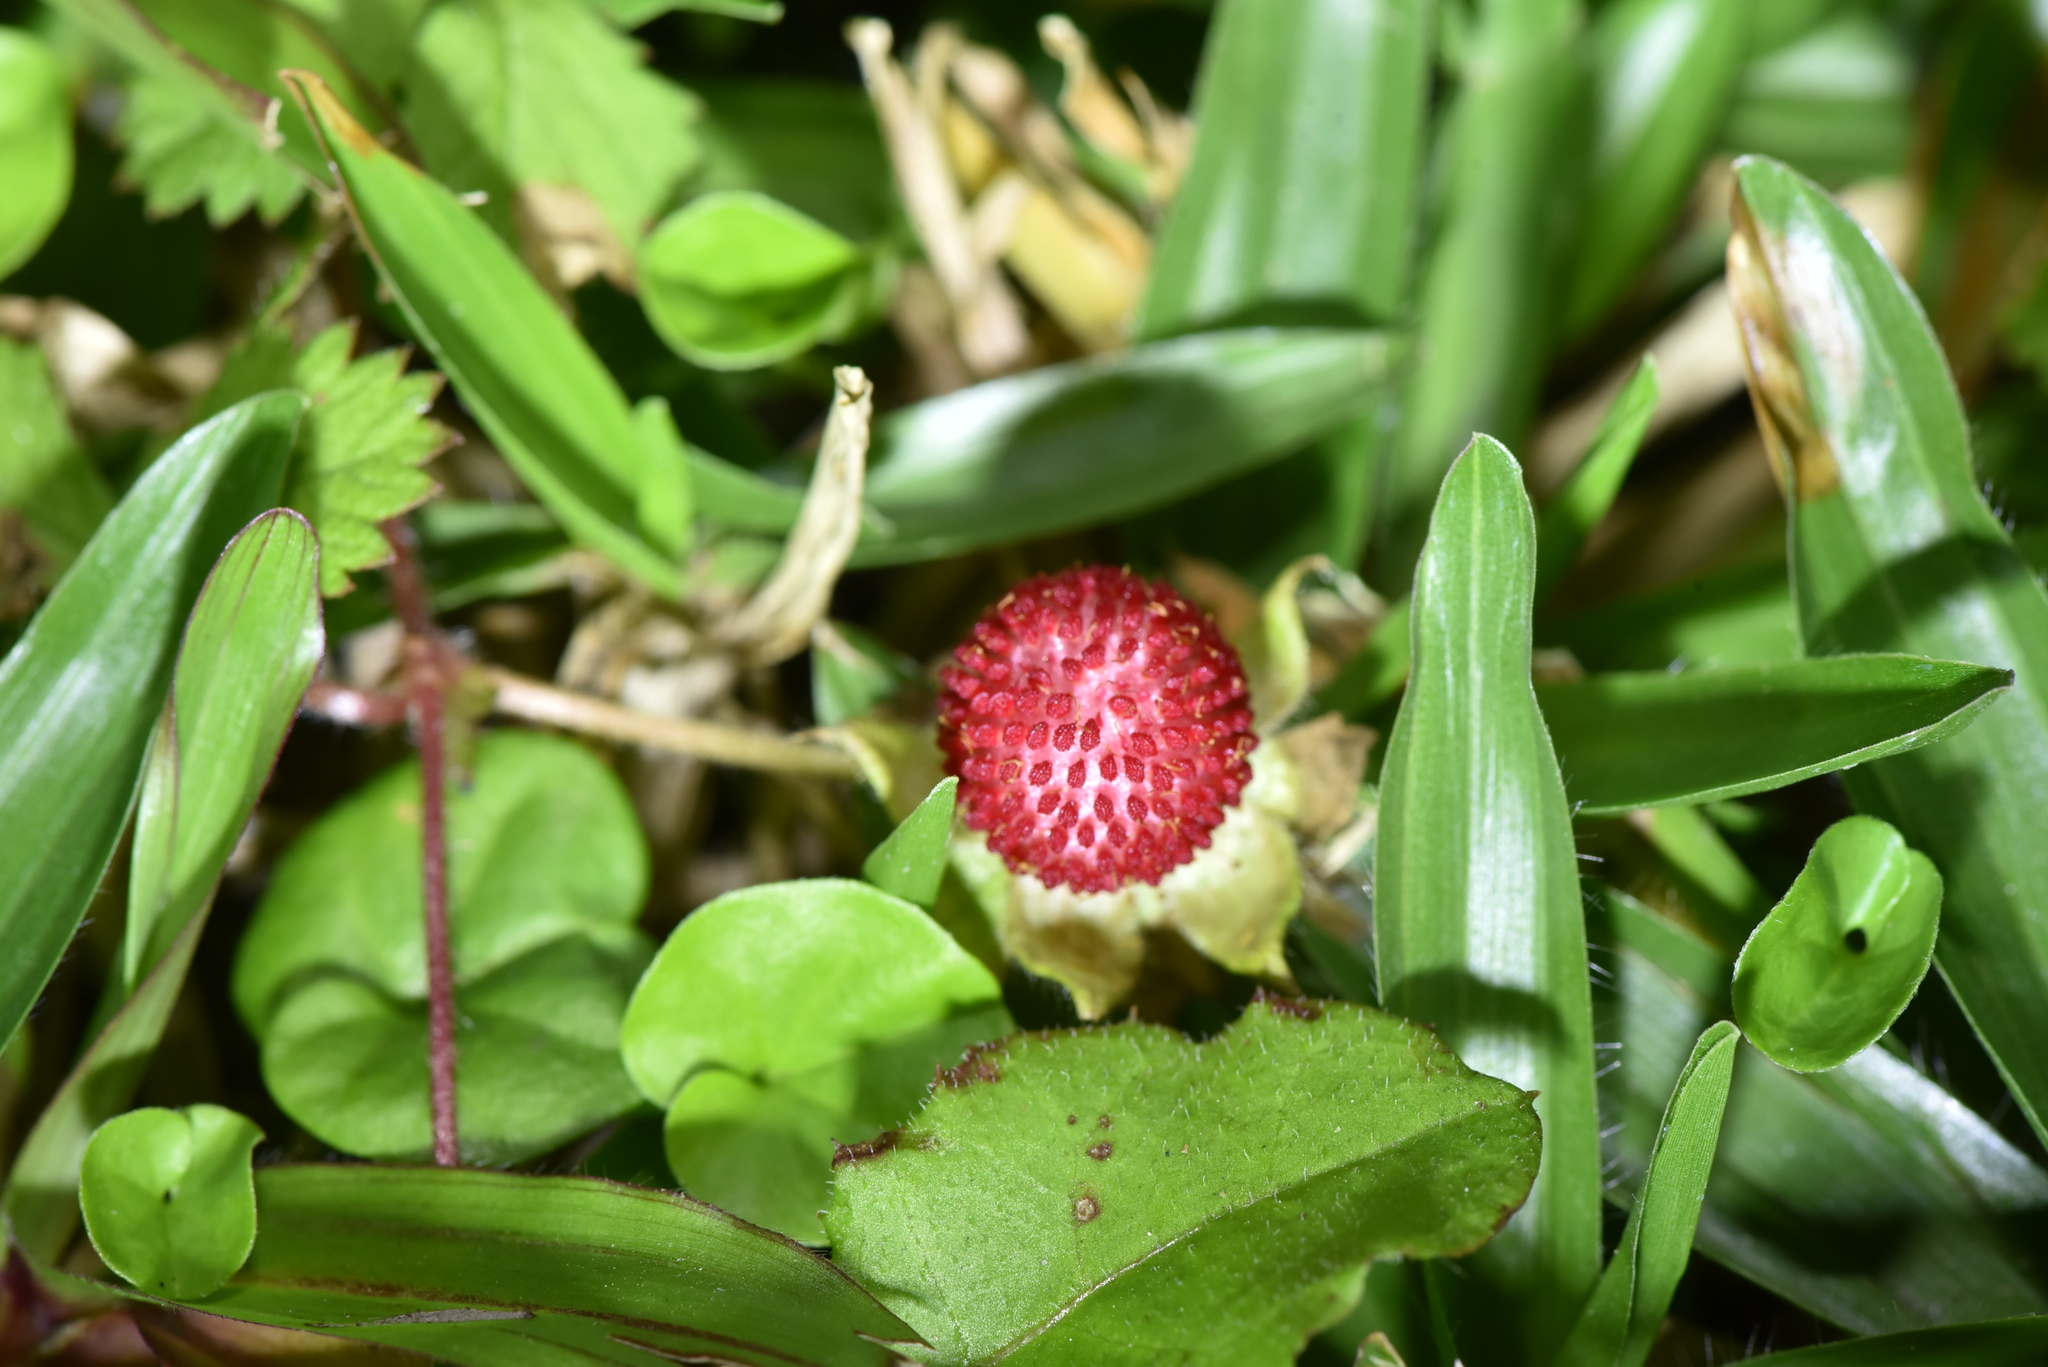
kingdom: Plantae
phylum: Tracheophyta
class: Magnoliopsida
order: Rosales
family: Rosaceae
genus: Potentilla
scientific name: Potentilla wallichiana
